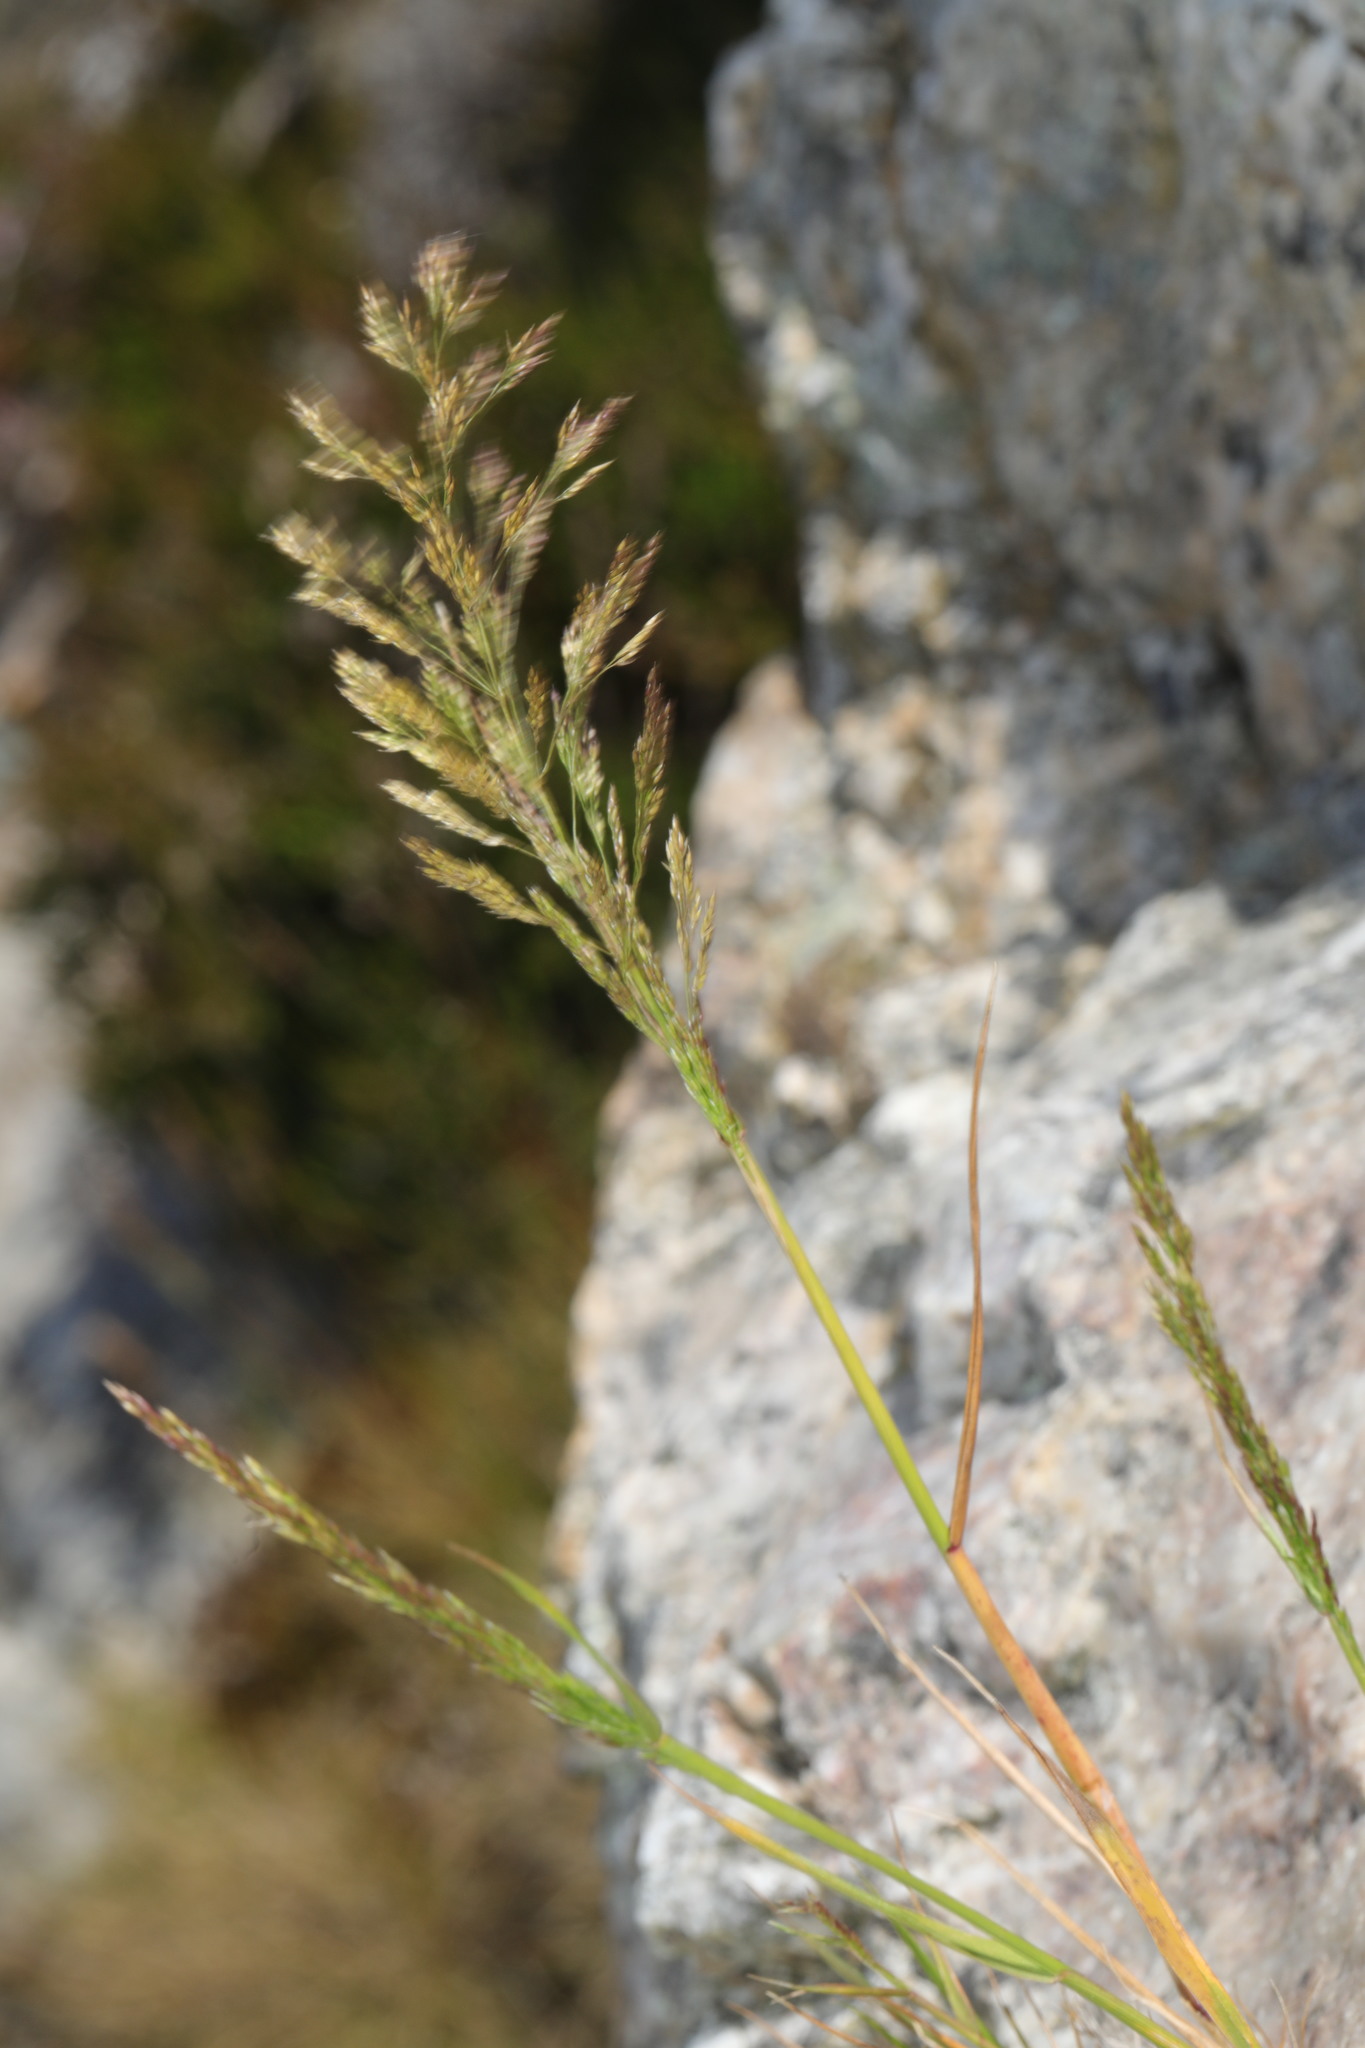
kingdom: Plantae
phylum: Tracheophyta
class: Liliopsida
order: Poales
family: Poaceae
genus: Polypogon
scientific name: Polypogon viridis
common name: Water bent
